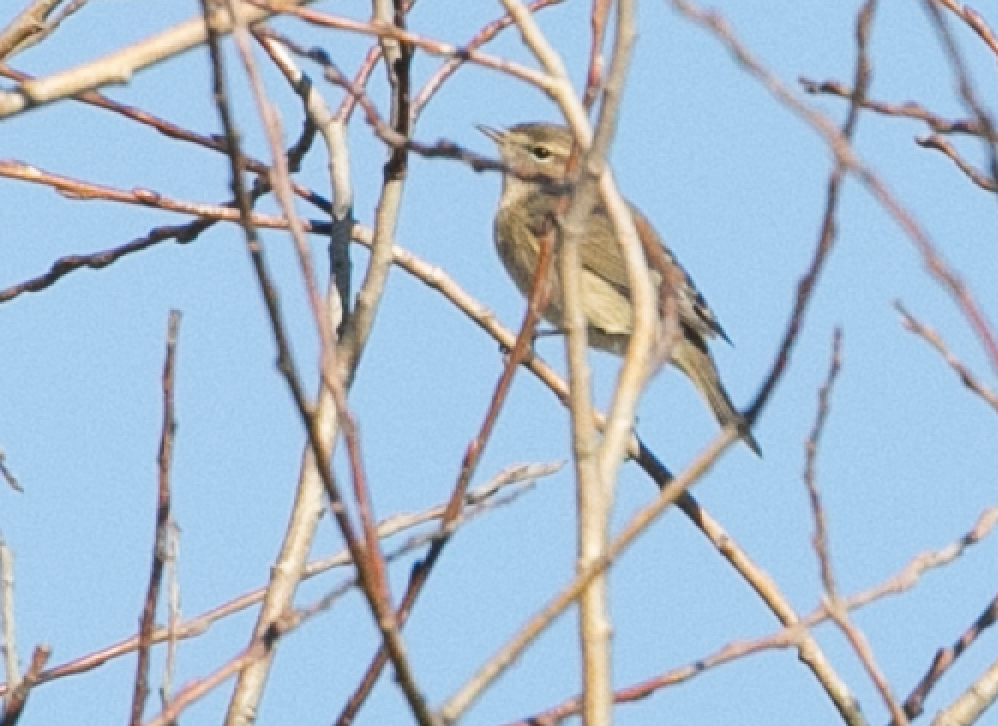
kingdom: Animalia
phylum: Chordata
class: Aves
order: Passeriformes
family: Phylloscopidae
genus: Phylloscopus
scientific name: Phylloscopus collybita
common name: Common chiffchaff
